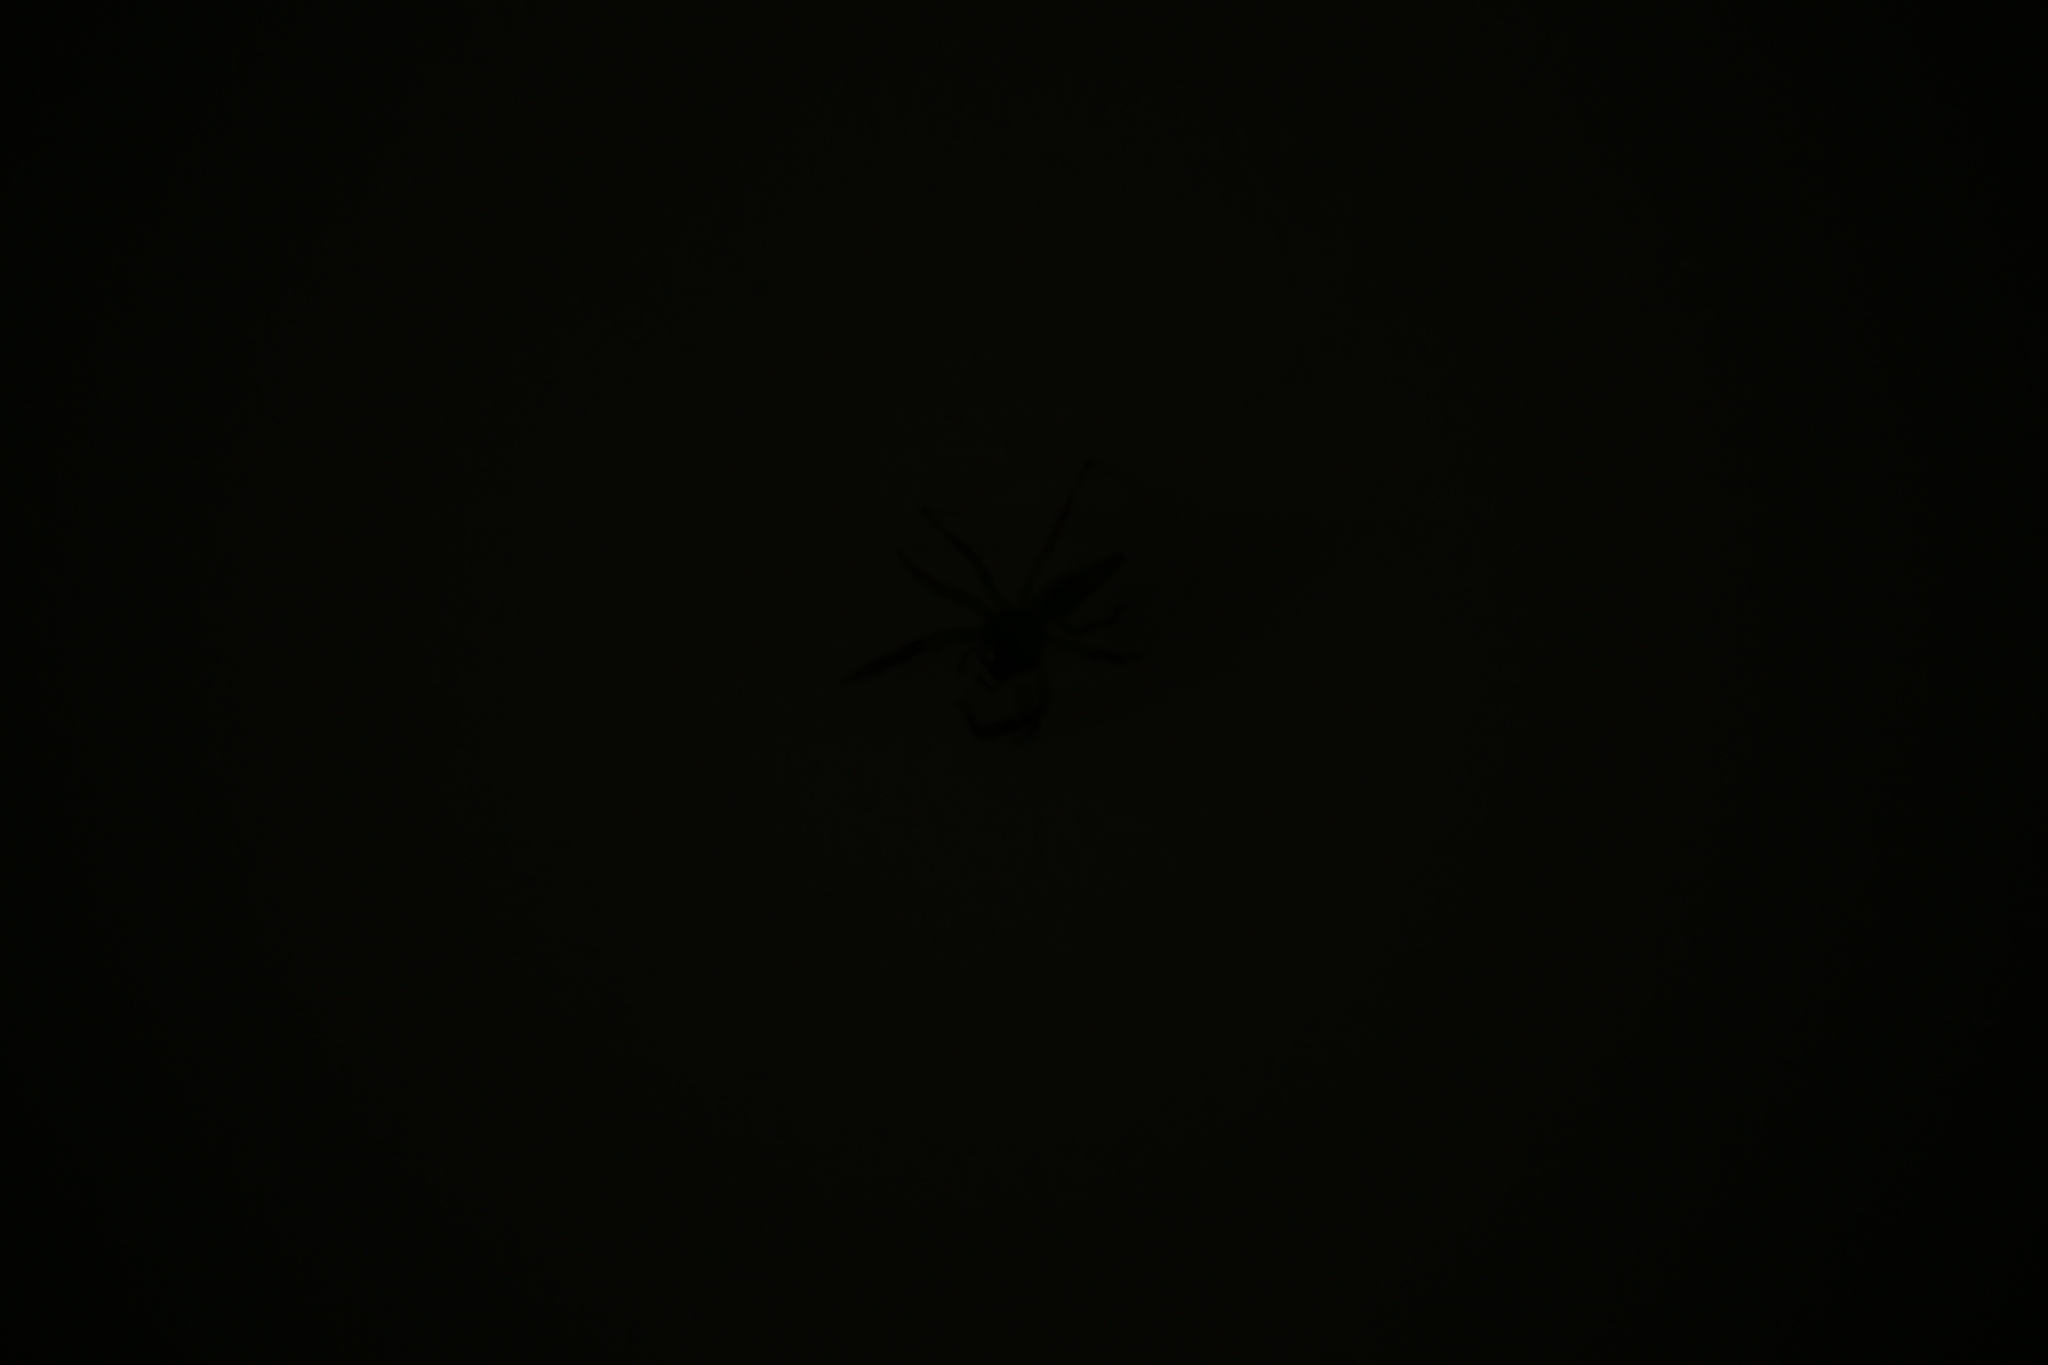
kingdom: Animalia
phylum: Arthropoda
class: Arachnida
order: Araneae
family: Salticidae
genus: Mopsus
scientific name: Mopsus mormon
